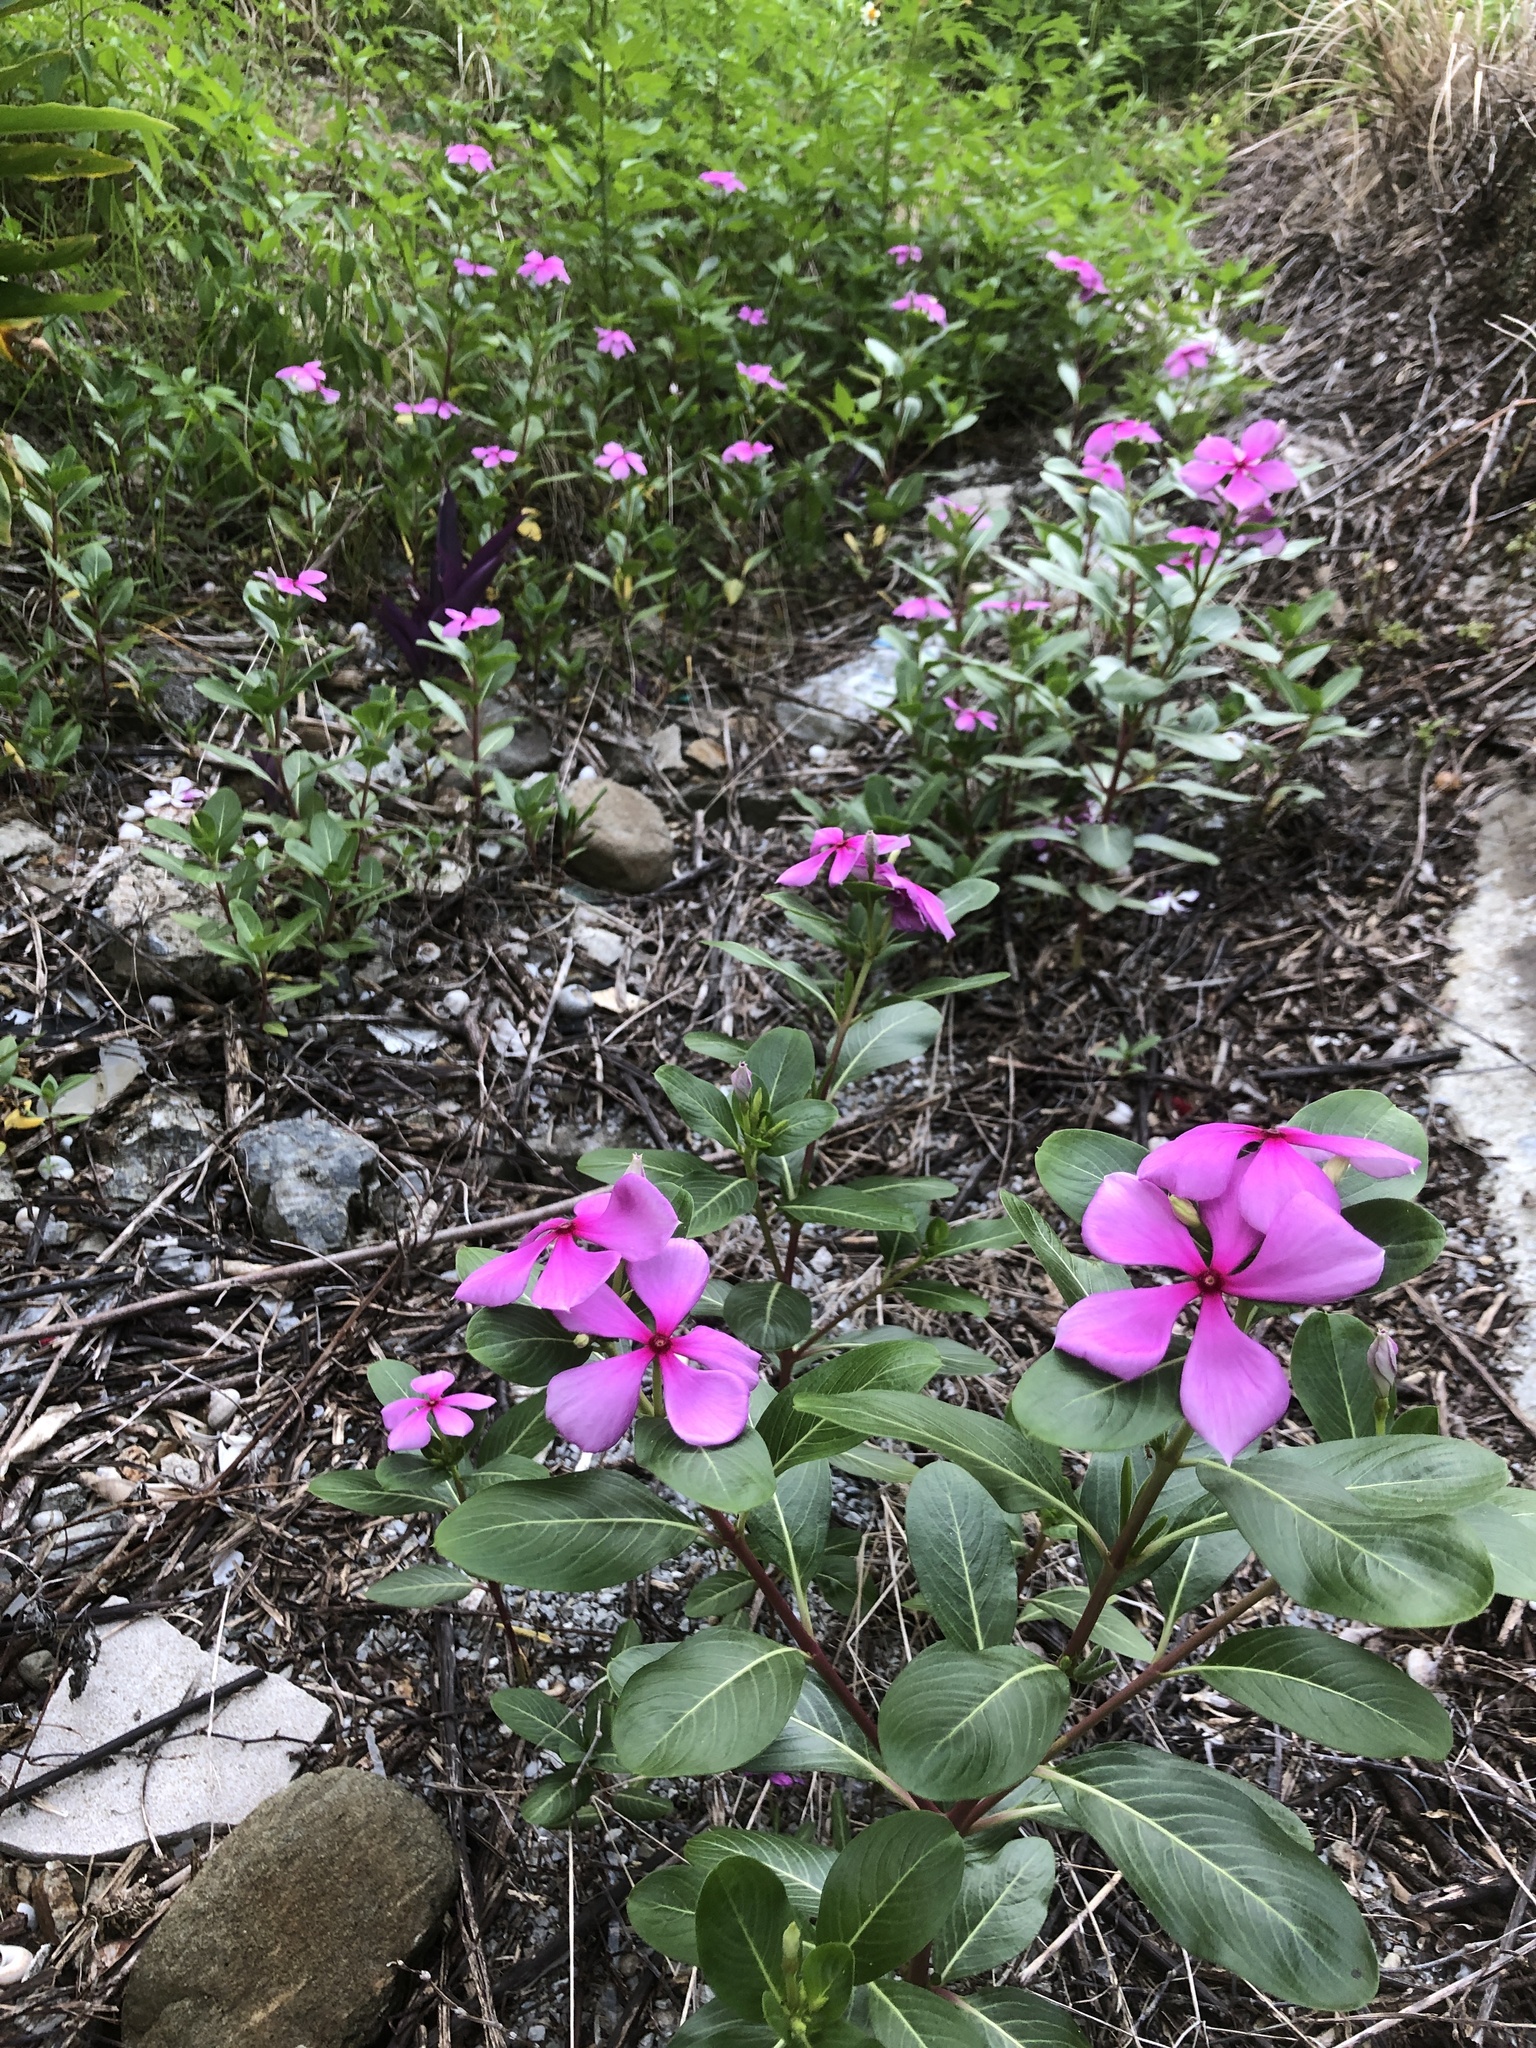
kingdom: Plantae
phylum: Tracheophyta
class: Magnoliopsida
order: Gentianales
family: Apocynaceae
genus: Catharanthus
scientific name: Catharanthus roseus
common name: Madagascar periwinkle
